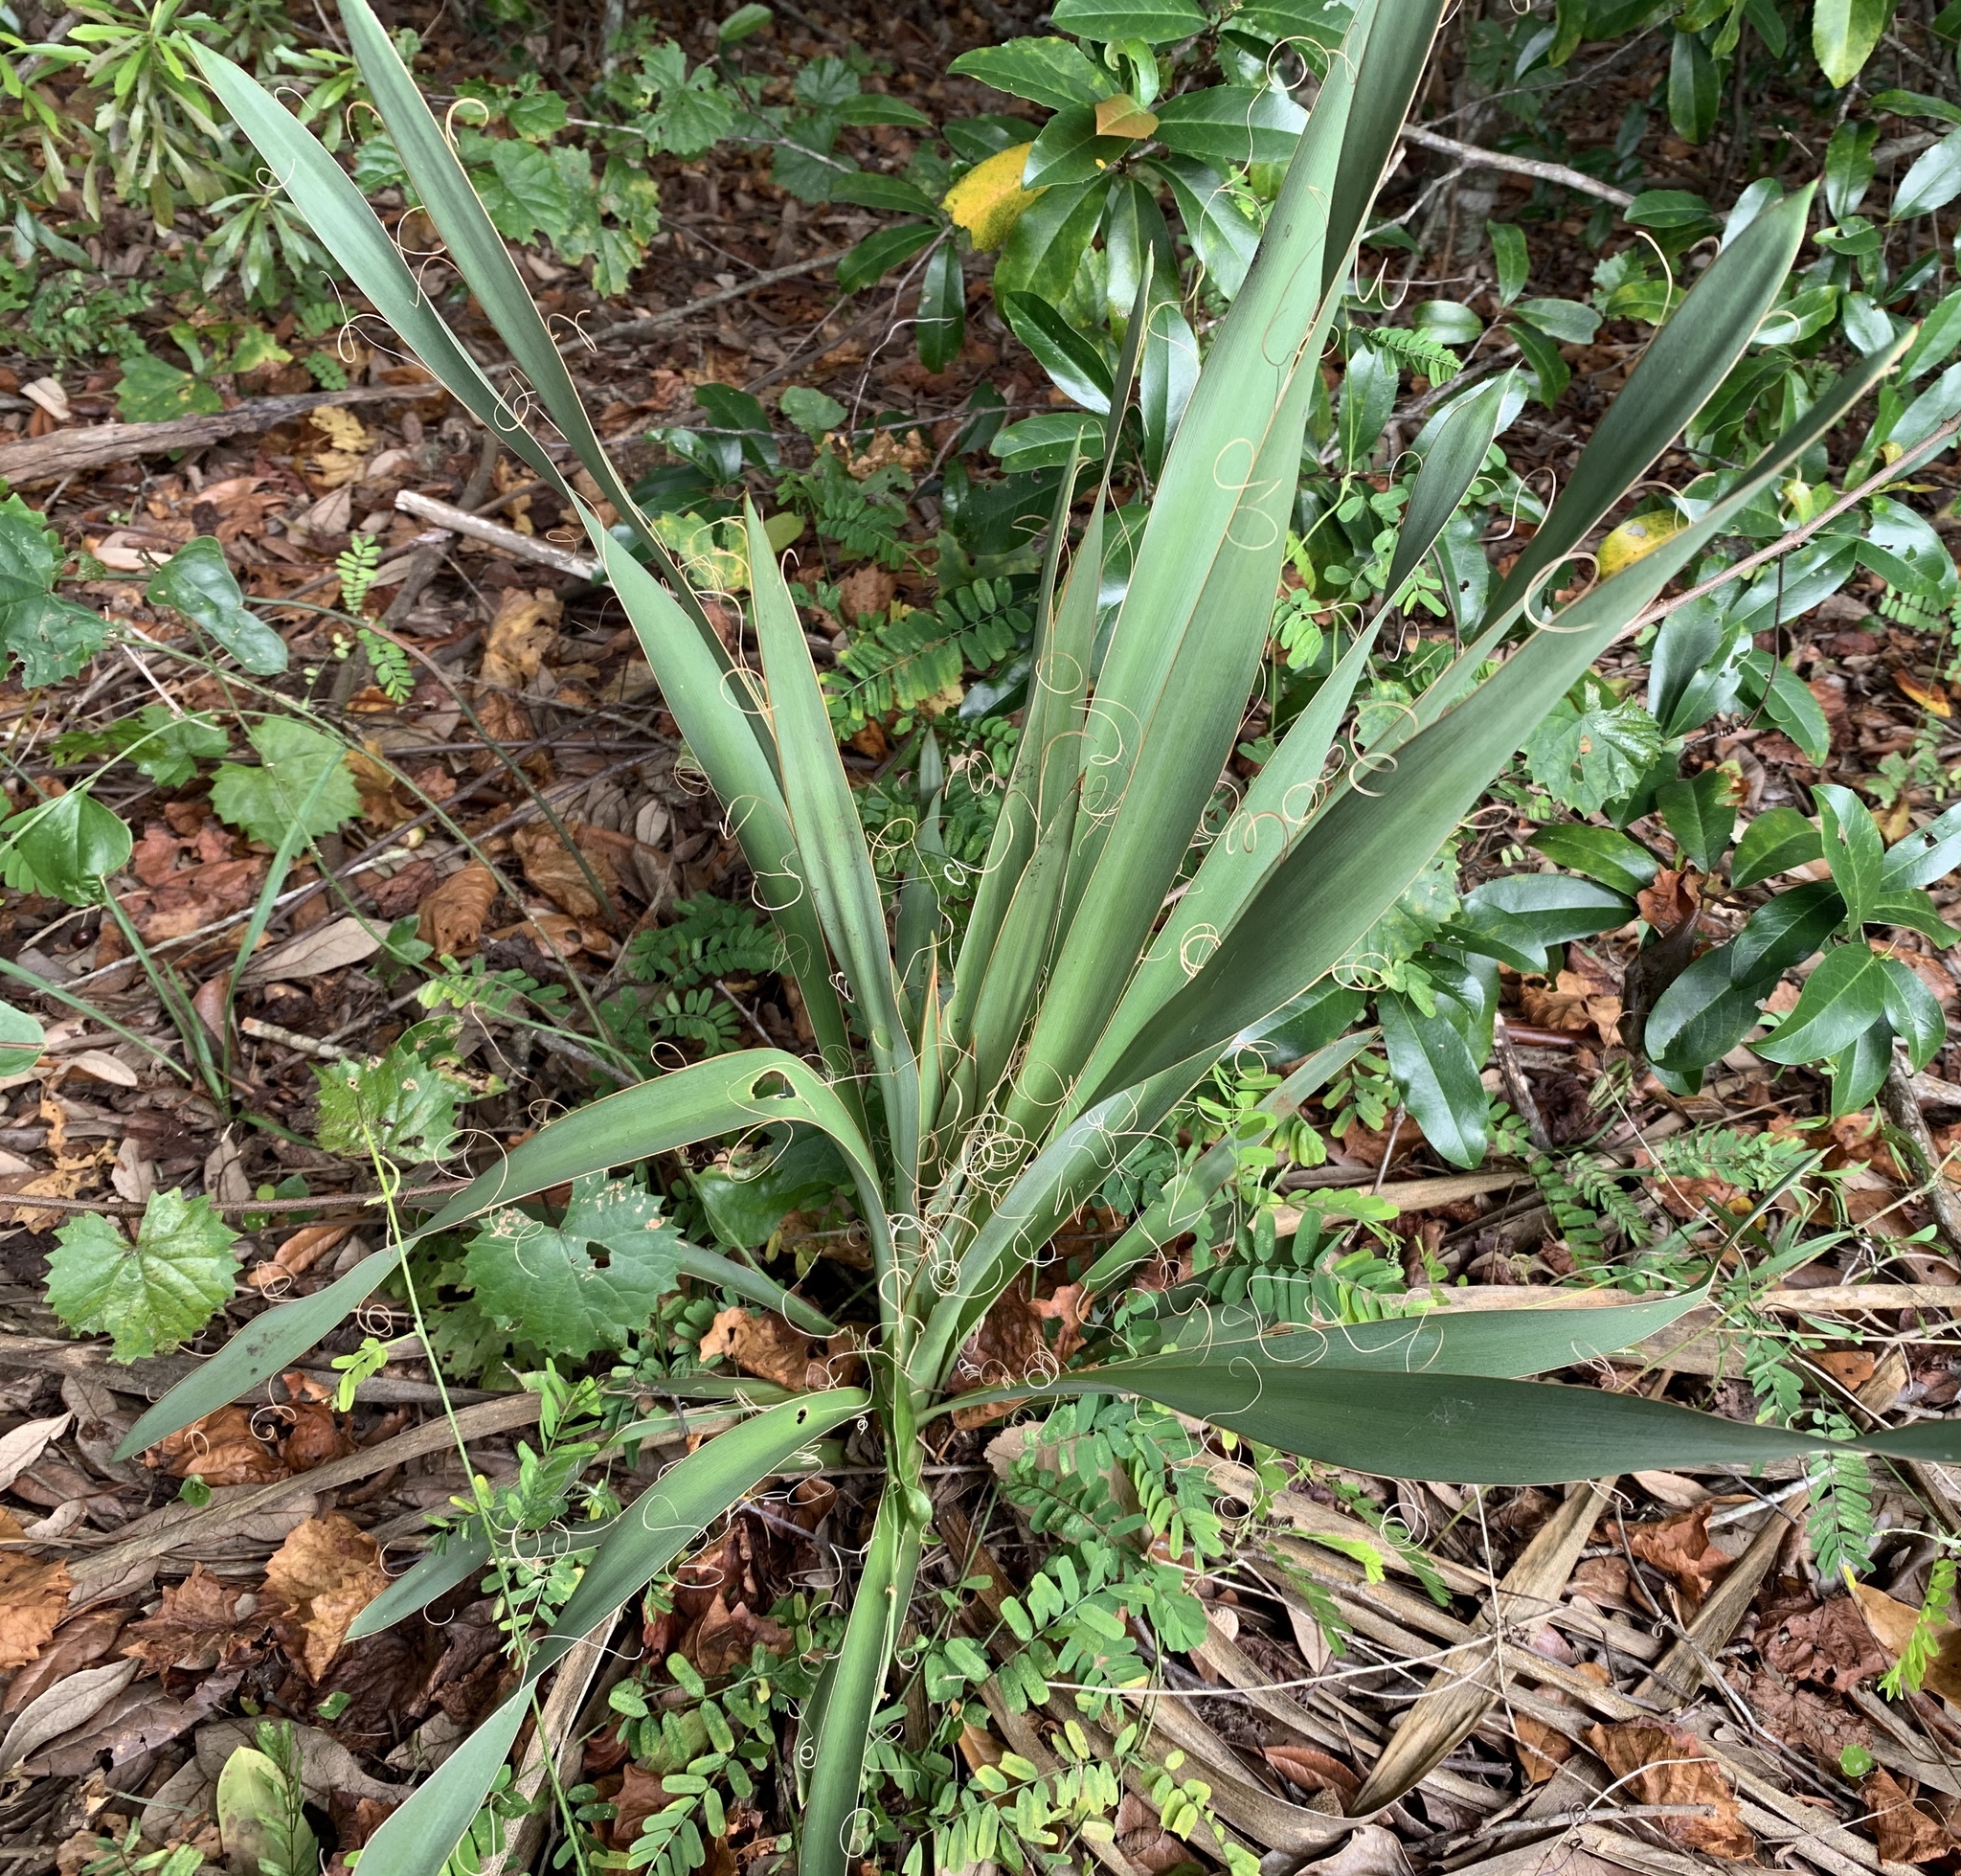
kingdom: Plantae
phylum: Tracheophyta
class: Liliopsida
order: Asparagales
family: Asparagaceae
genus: Yucca
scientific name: Yucca filamentosa
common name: Adam's-needle
